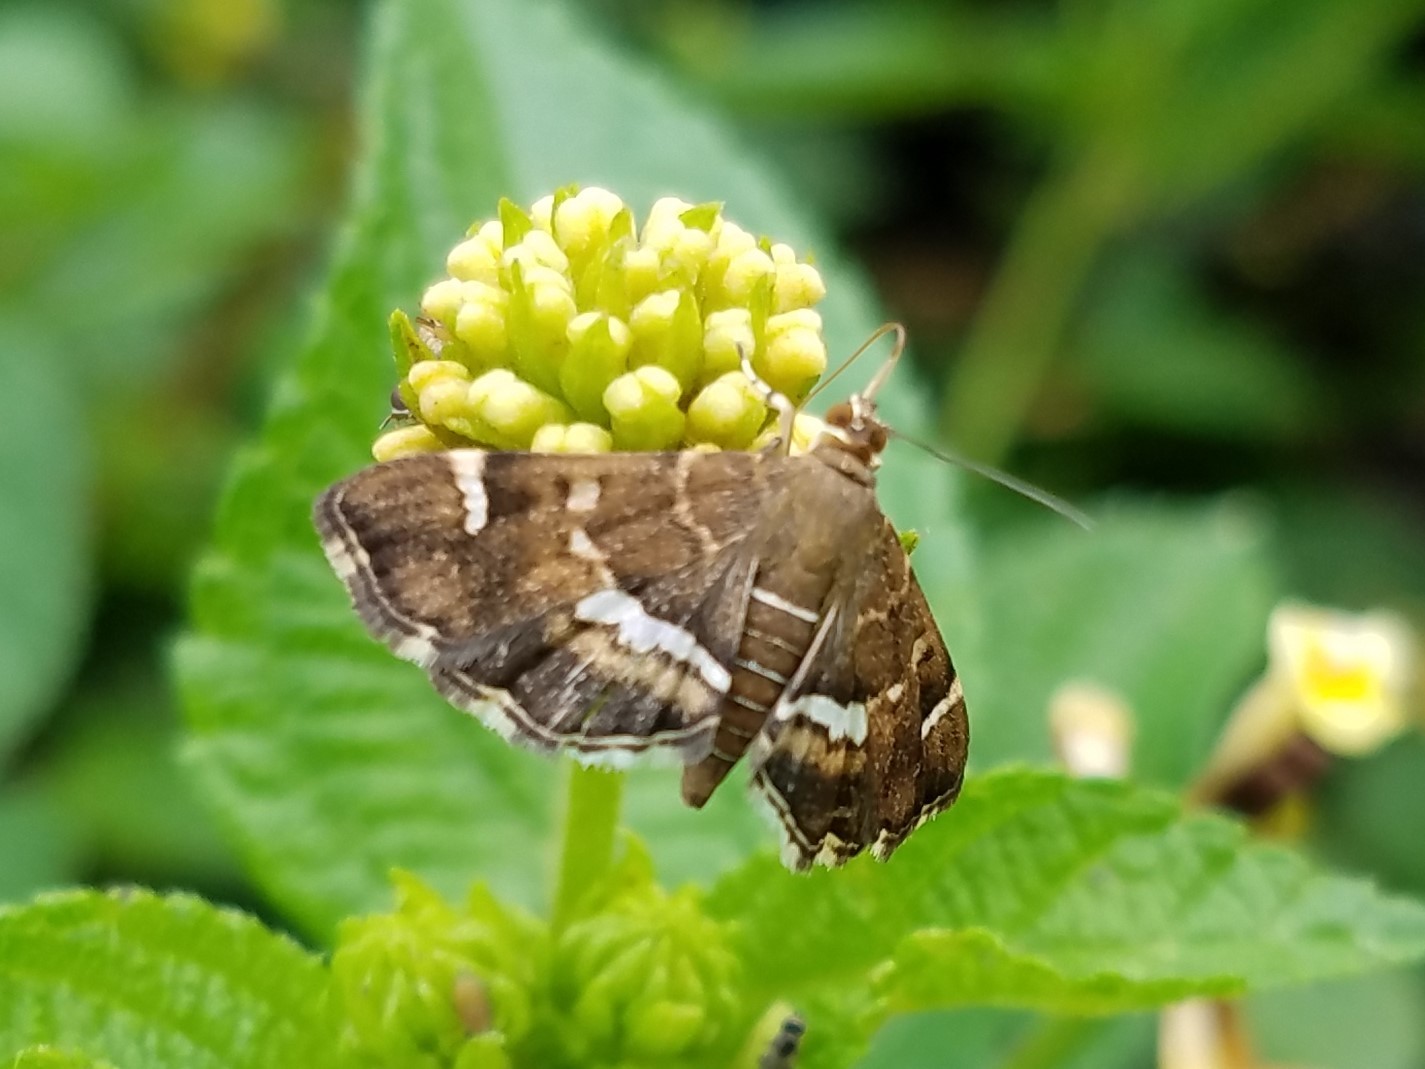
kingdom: Animalia
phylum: Arthropoda
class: Insecta
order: Lepidoptera
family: Crambidae
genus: Hymenia
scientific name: Hymenia perspectalis
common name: Spotted beet webworm
